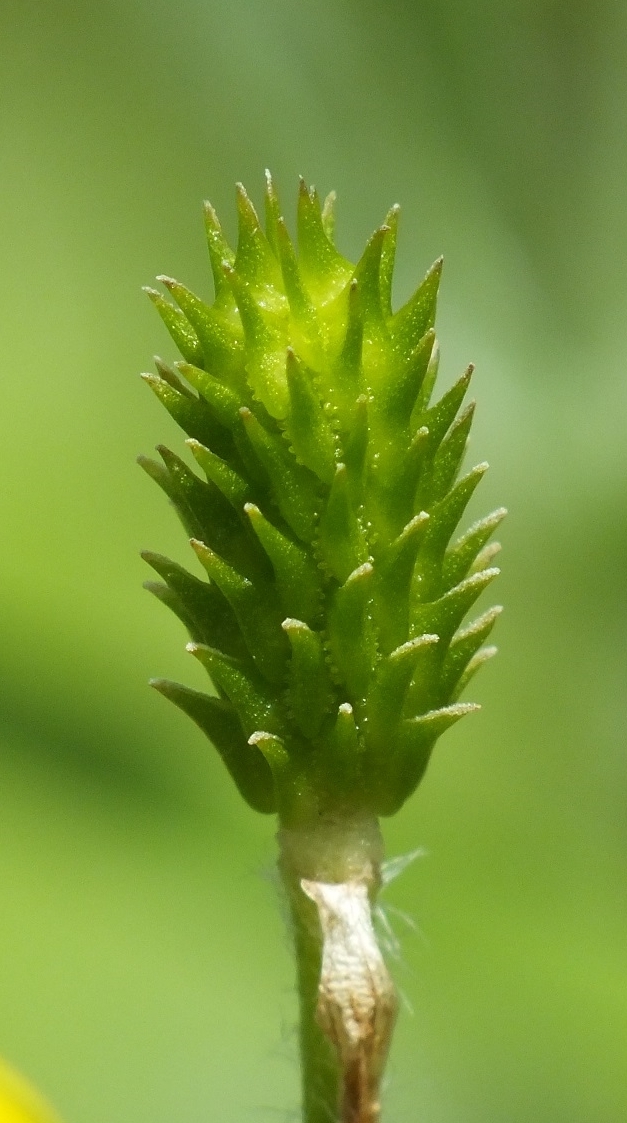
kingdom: Plantae
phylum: Tracheophyta
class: Magnoliopsida
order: Ranunculales
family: Ranunculaceae
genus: Ranunculus
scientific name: Ranunculus illyricus
